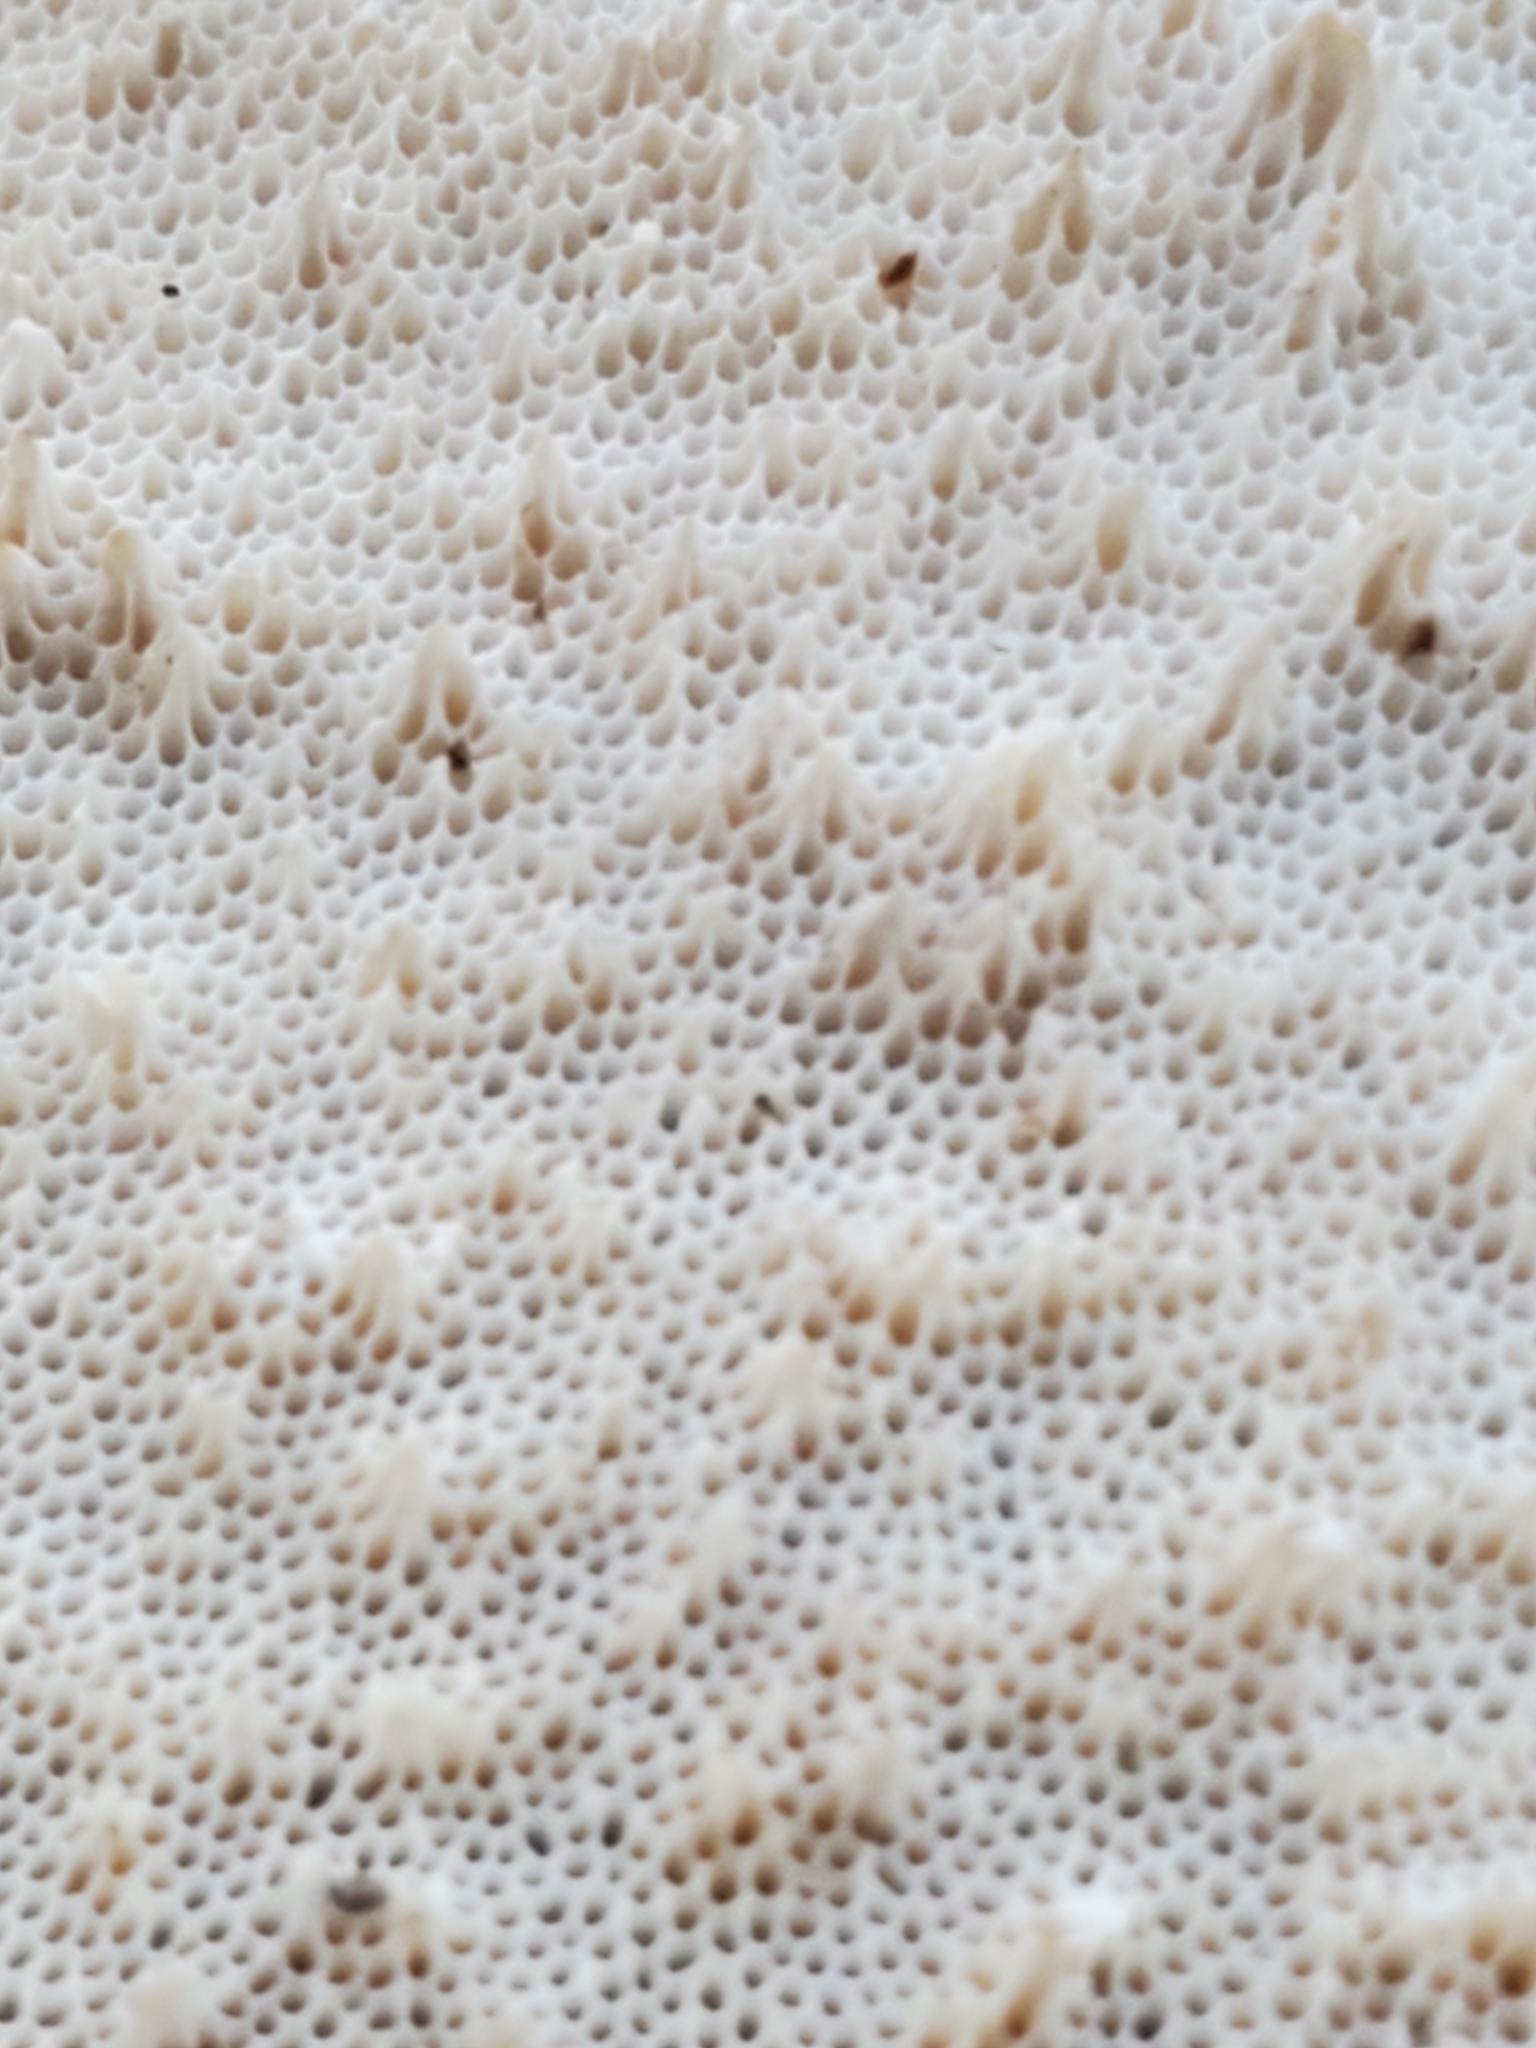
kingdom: Fungi
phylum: Basidiomycota
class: Agaricomycetes
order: Polyporales
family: Fomitopsidaceae
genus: Fomitopsis
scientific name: Fomitopsis betulina
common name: Birch polypore
